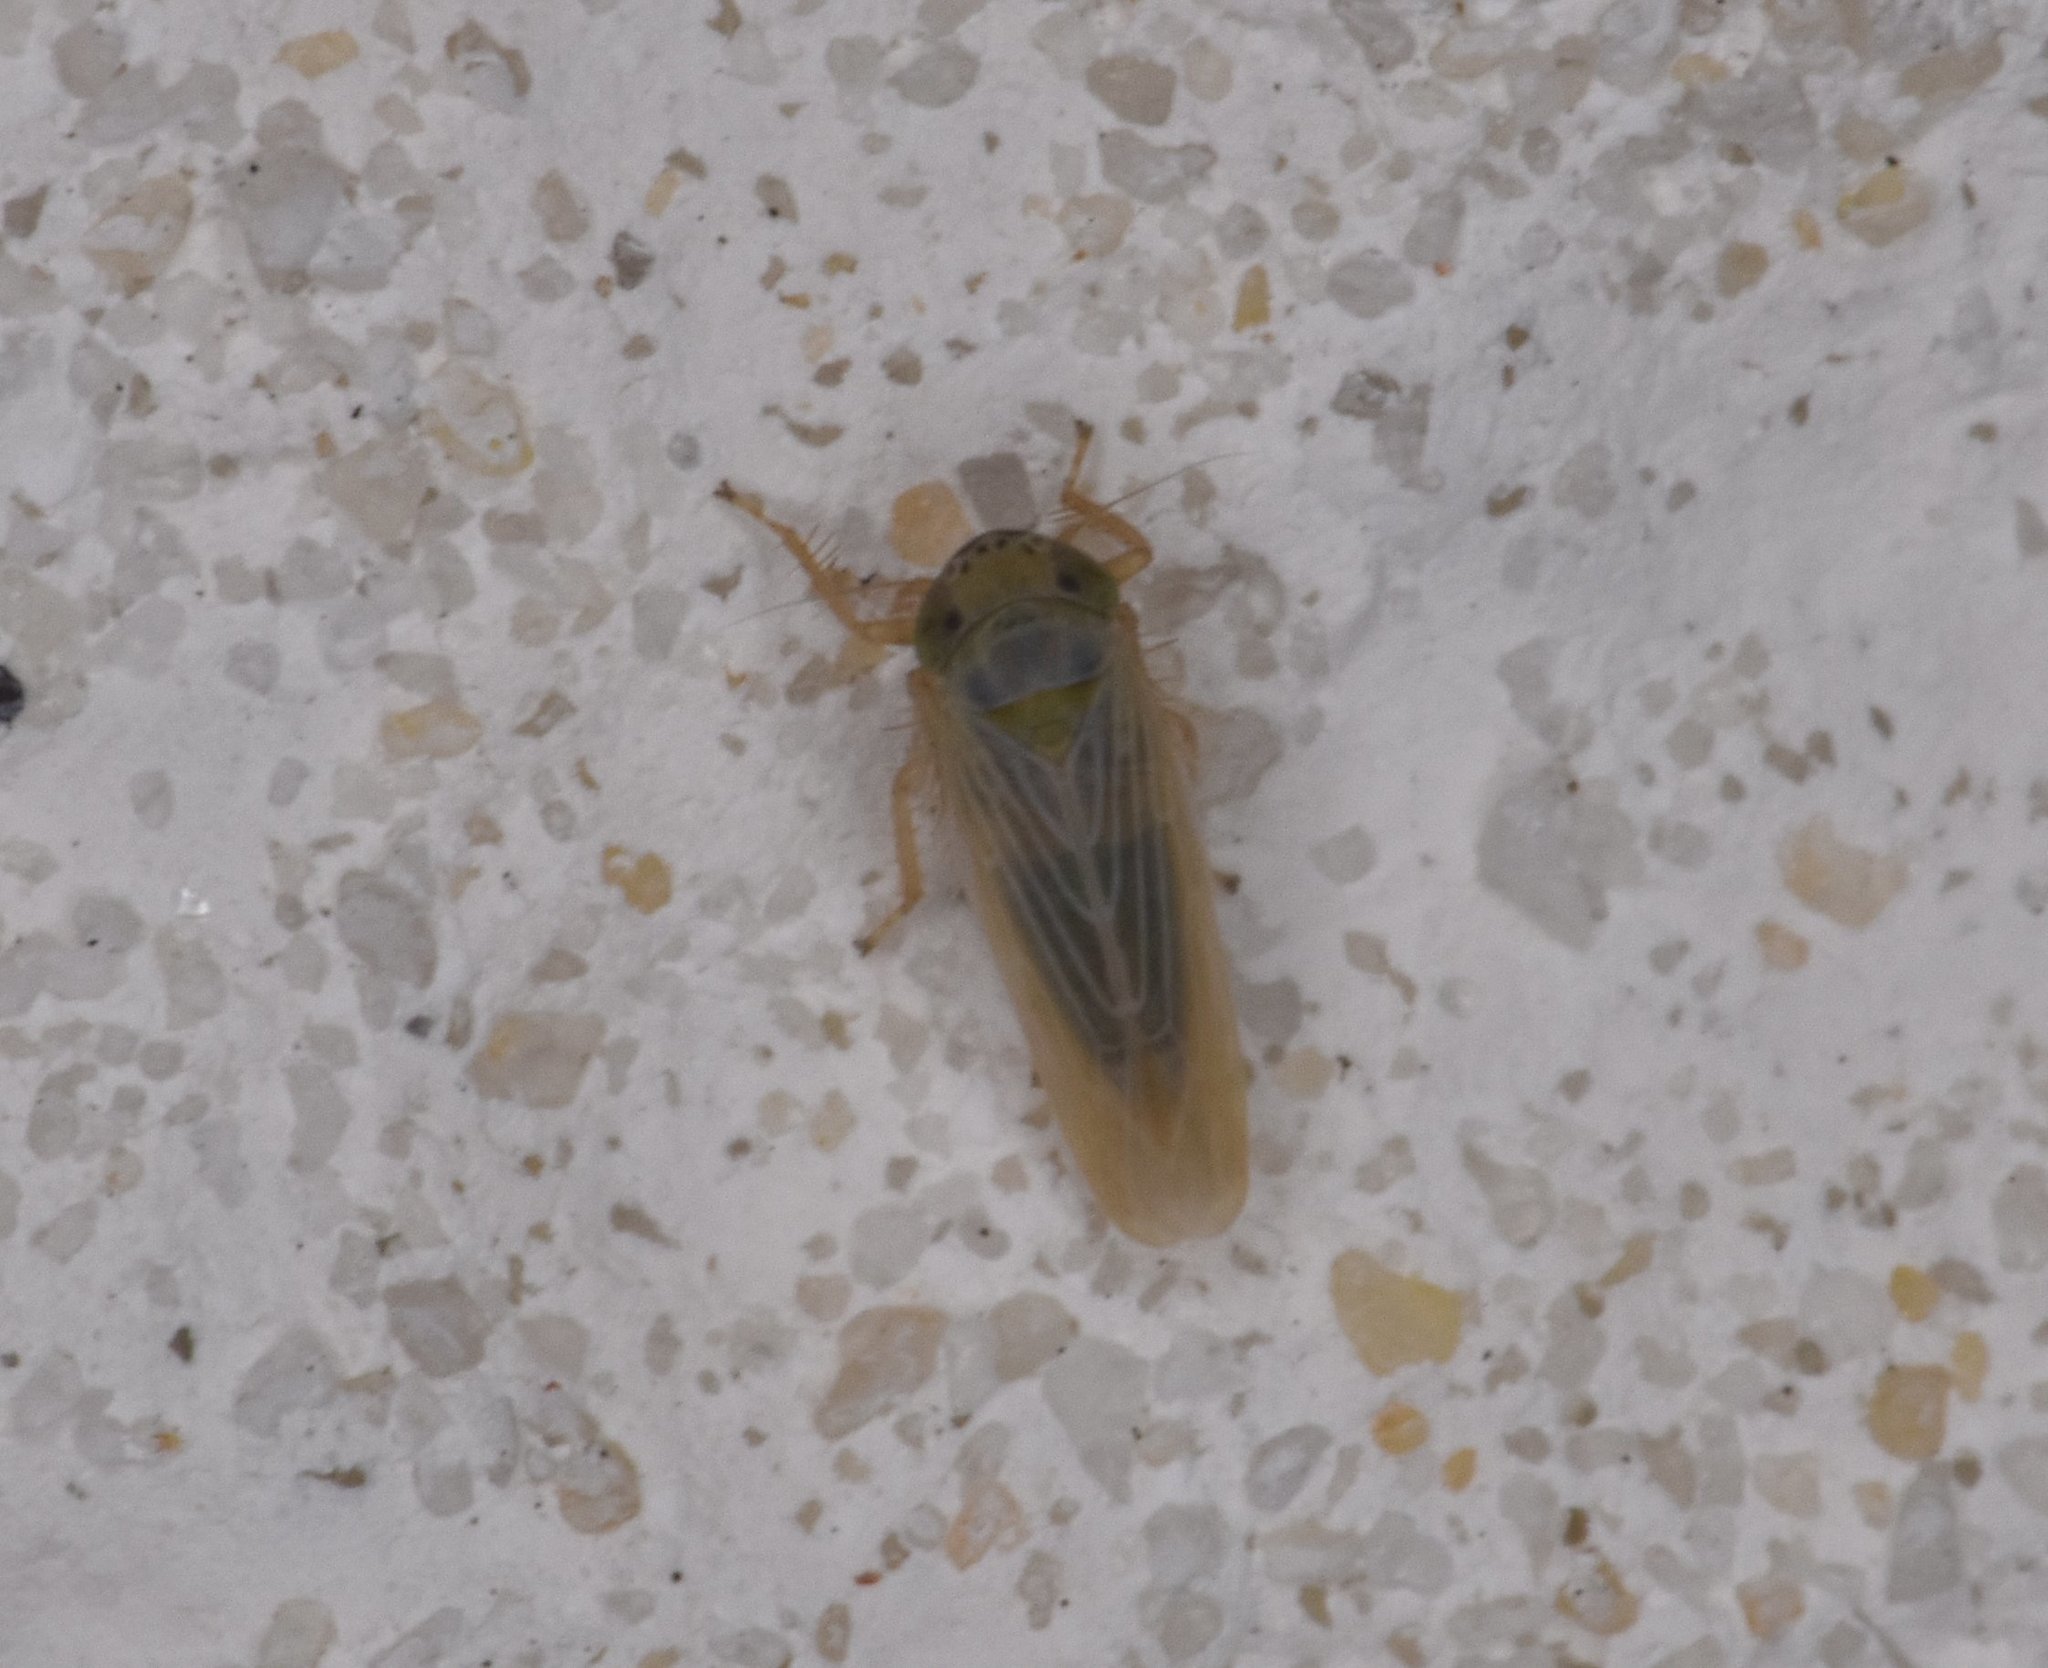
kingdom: Animalia
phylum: Arthropoda
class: Insecta
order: Hemiptera
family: Cicadellidae
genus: Graminella
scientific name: Graminella nigrifrons
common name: Blackfaced leafhopper
